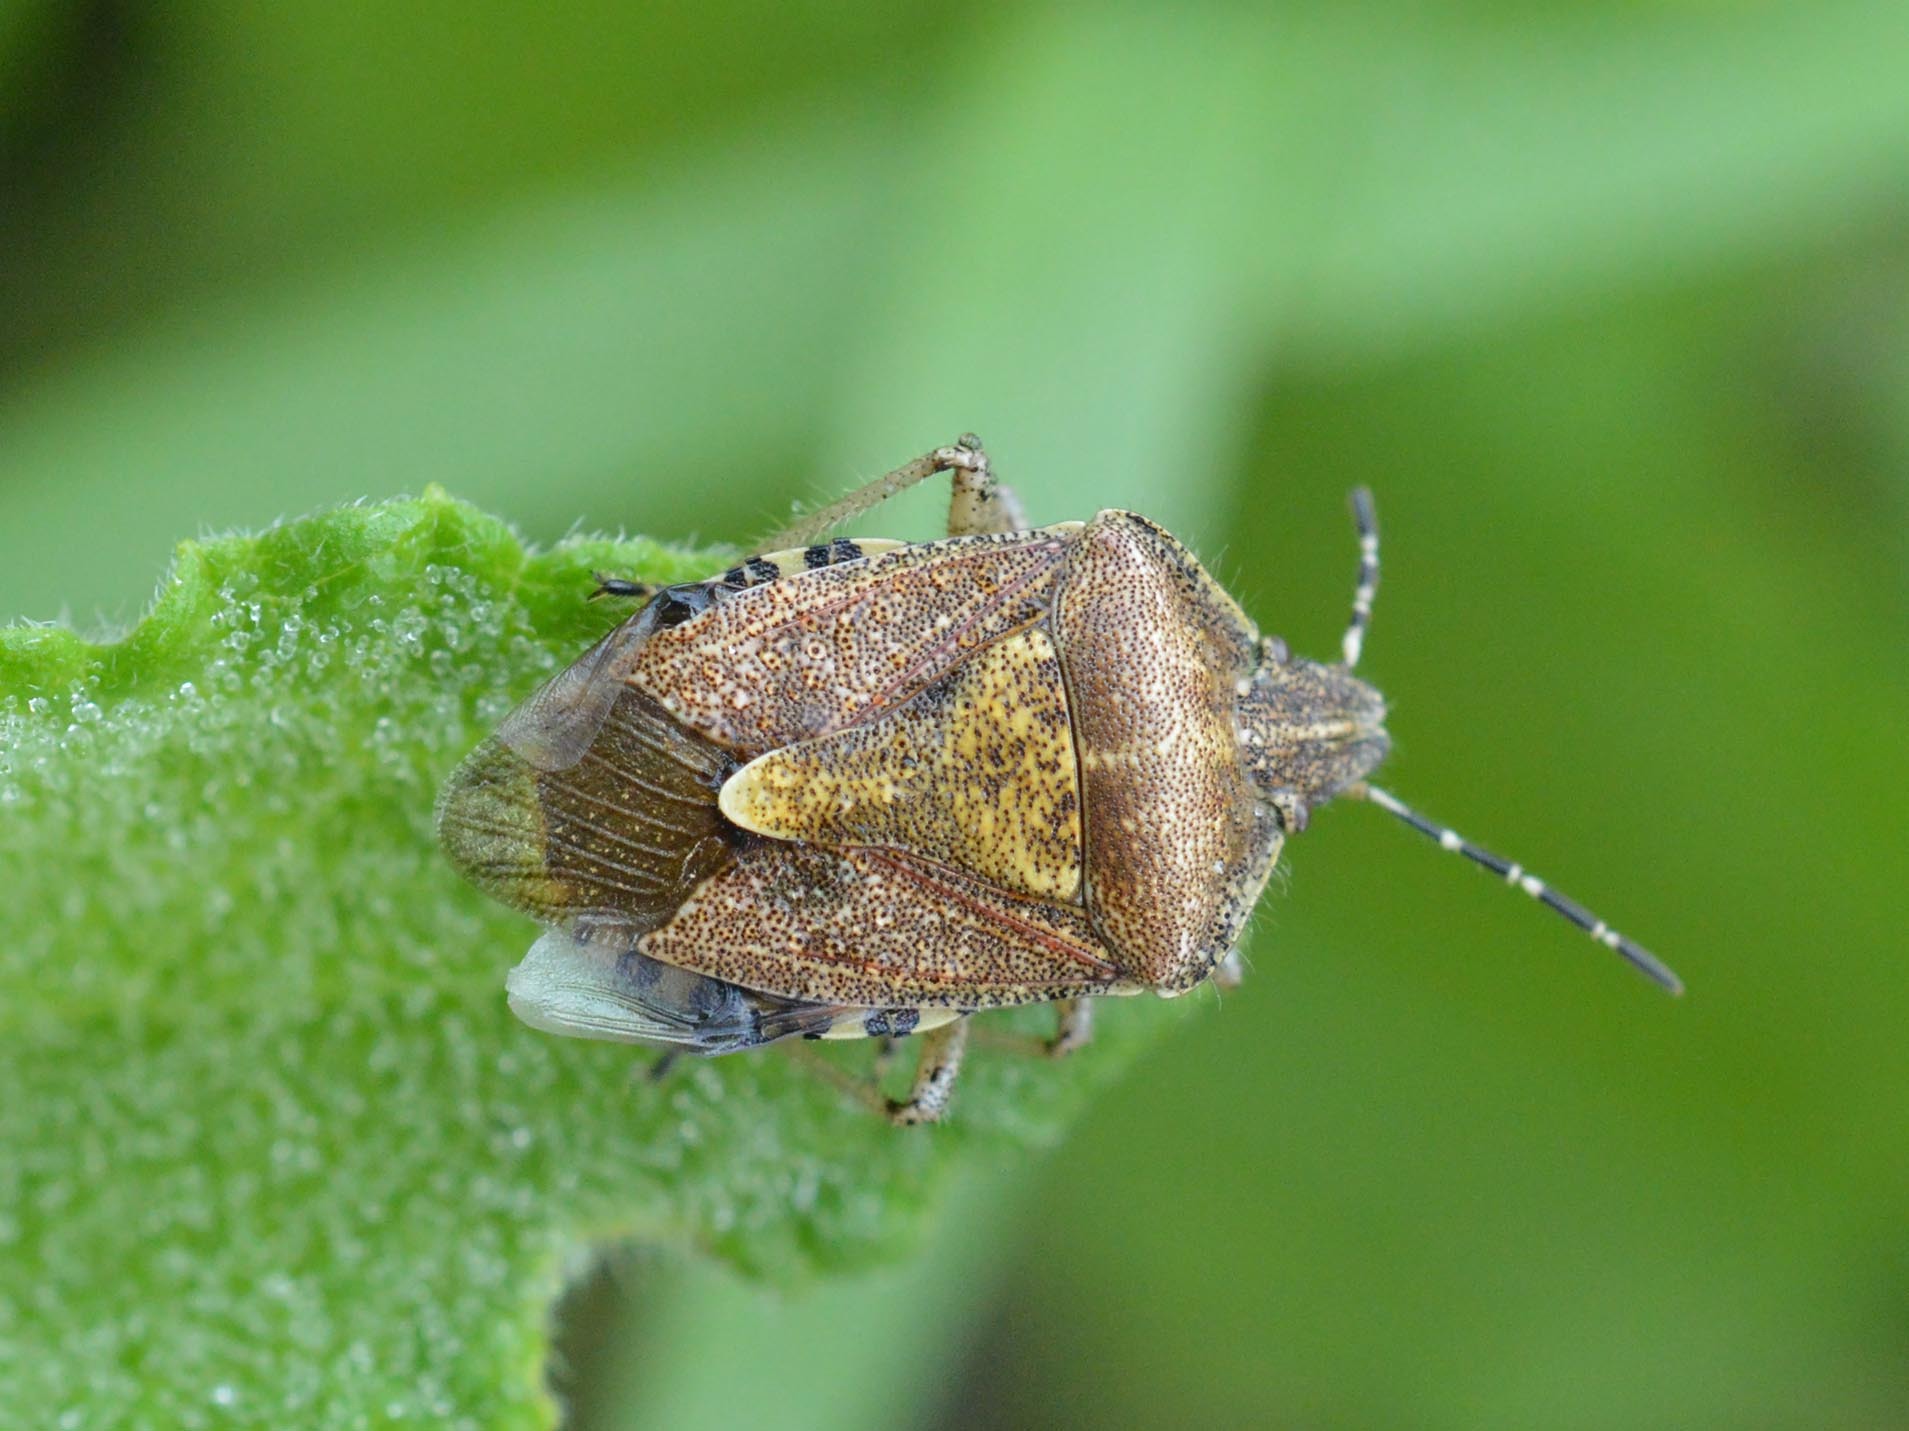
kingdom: Animalia
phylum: Arthropoda
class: Insecta
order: Hemiptera
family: Pentatomidae
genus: Dolycoris
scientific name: Dolycoris baccarum
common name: Sloe bug
